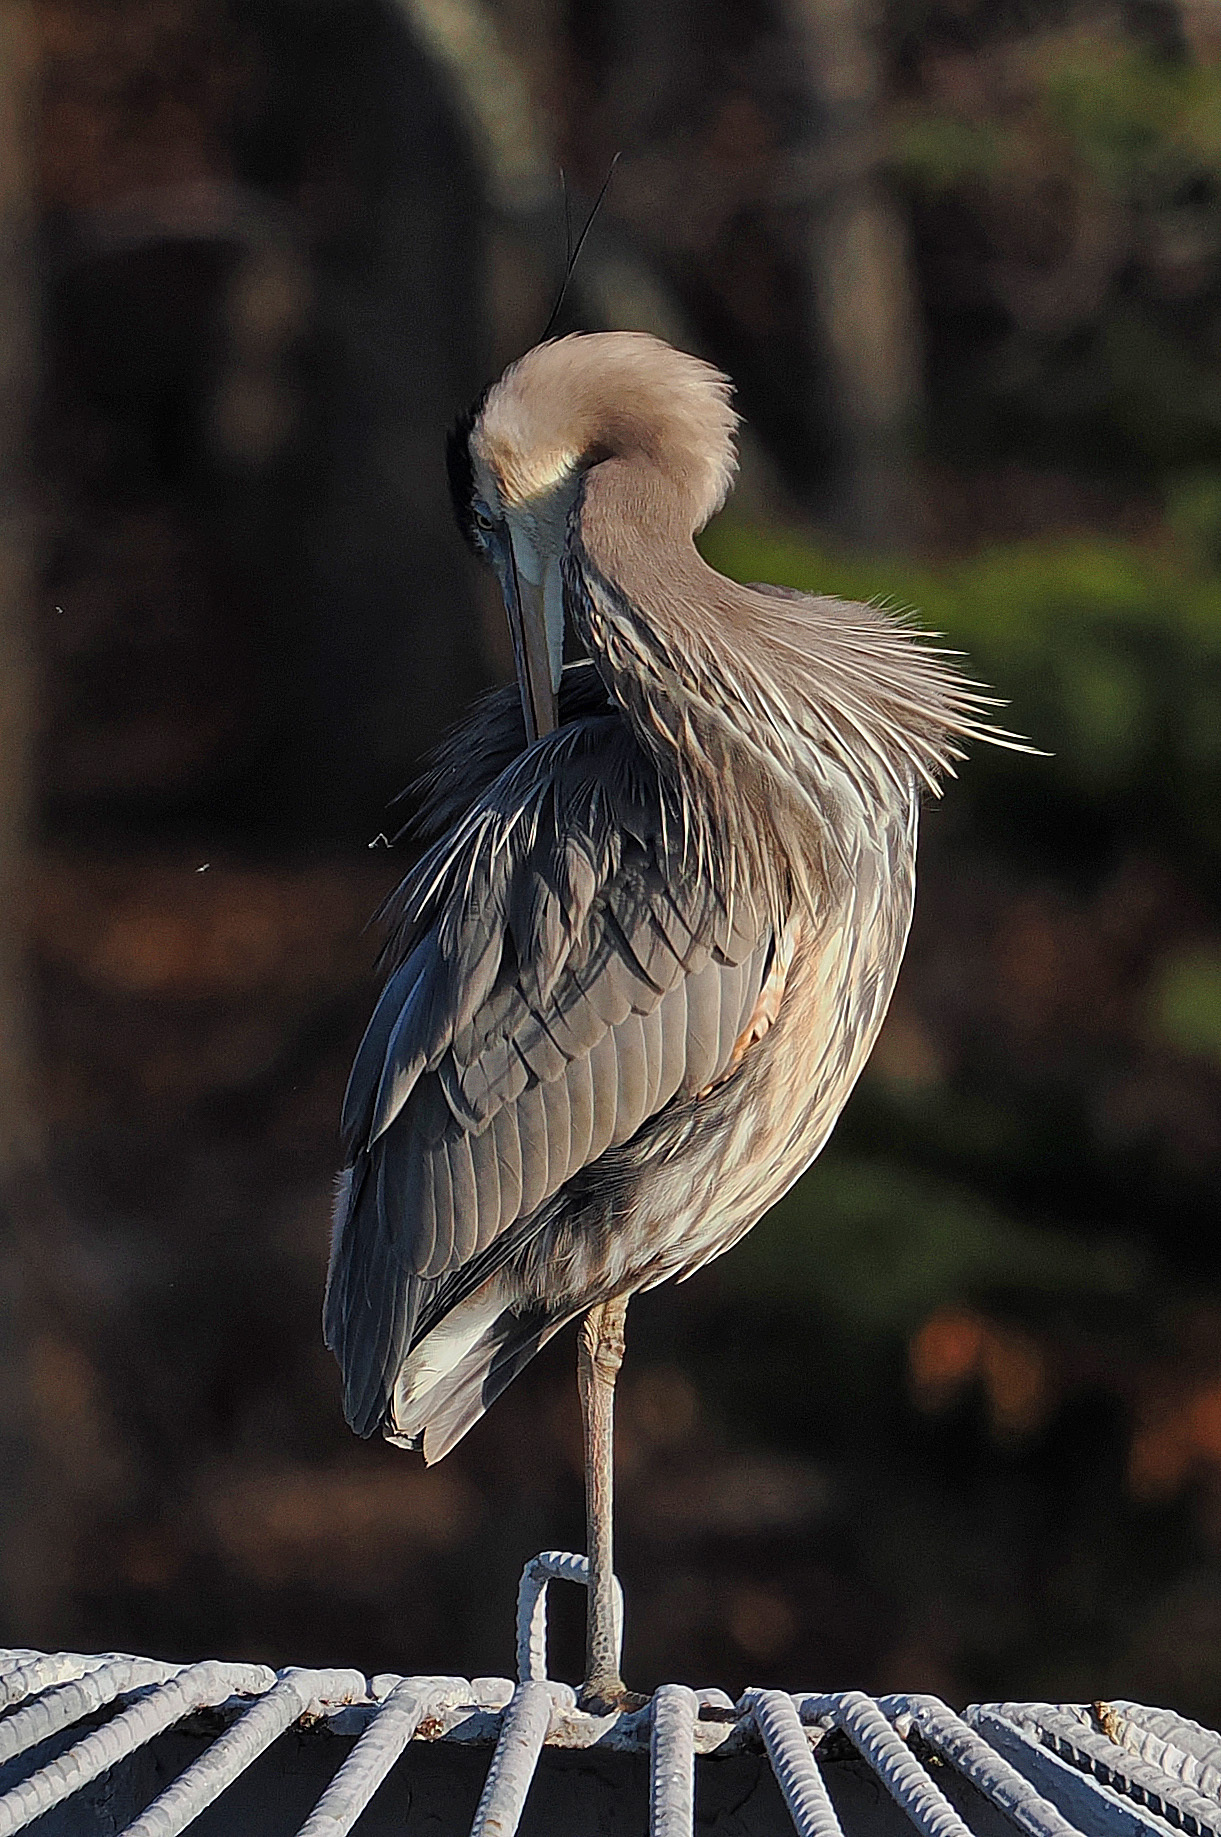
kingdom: Animalia
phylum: Chordata
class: Aves
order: Pelecaniformes
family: Ardeidae
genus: Ardea
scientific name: Ardea herodias
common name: Great blue heron
